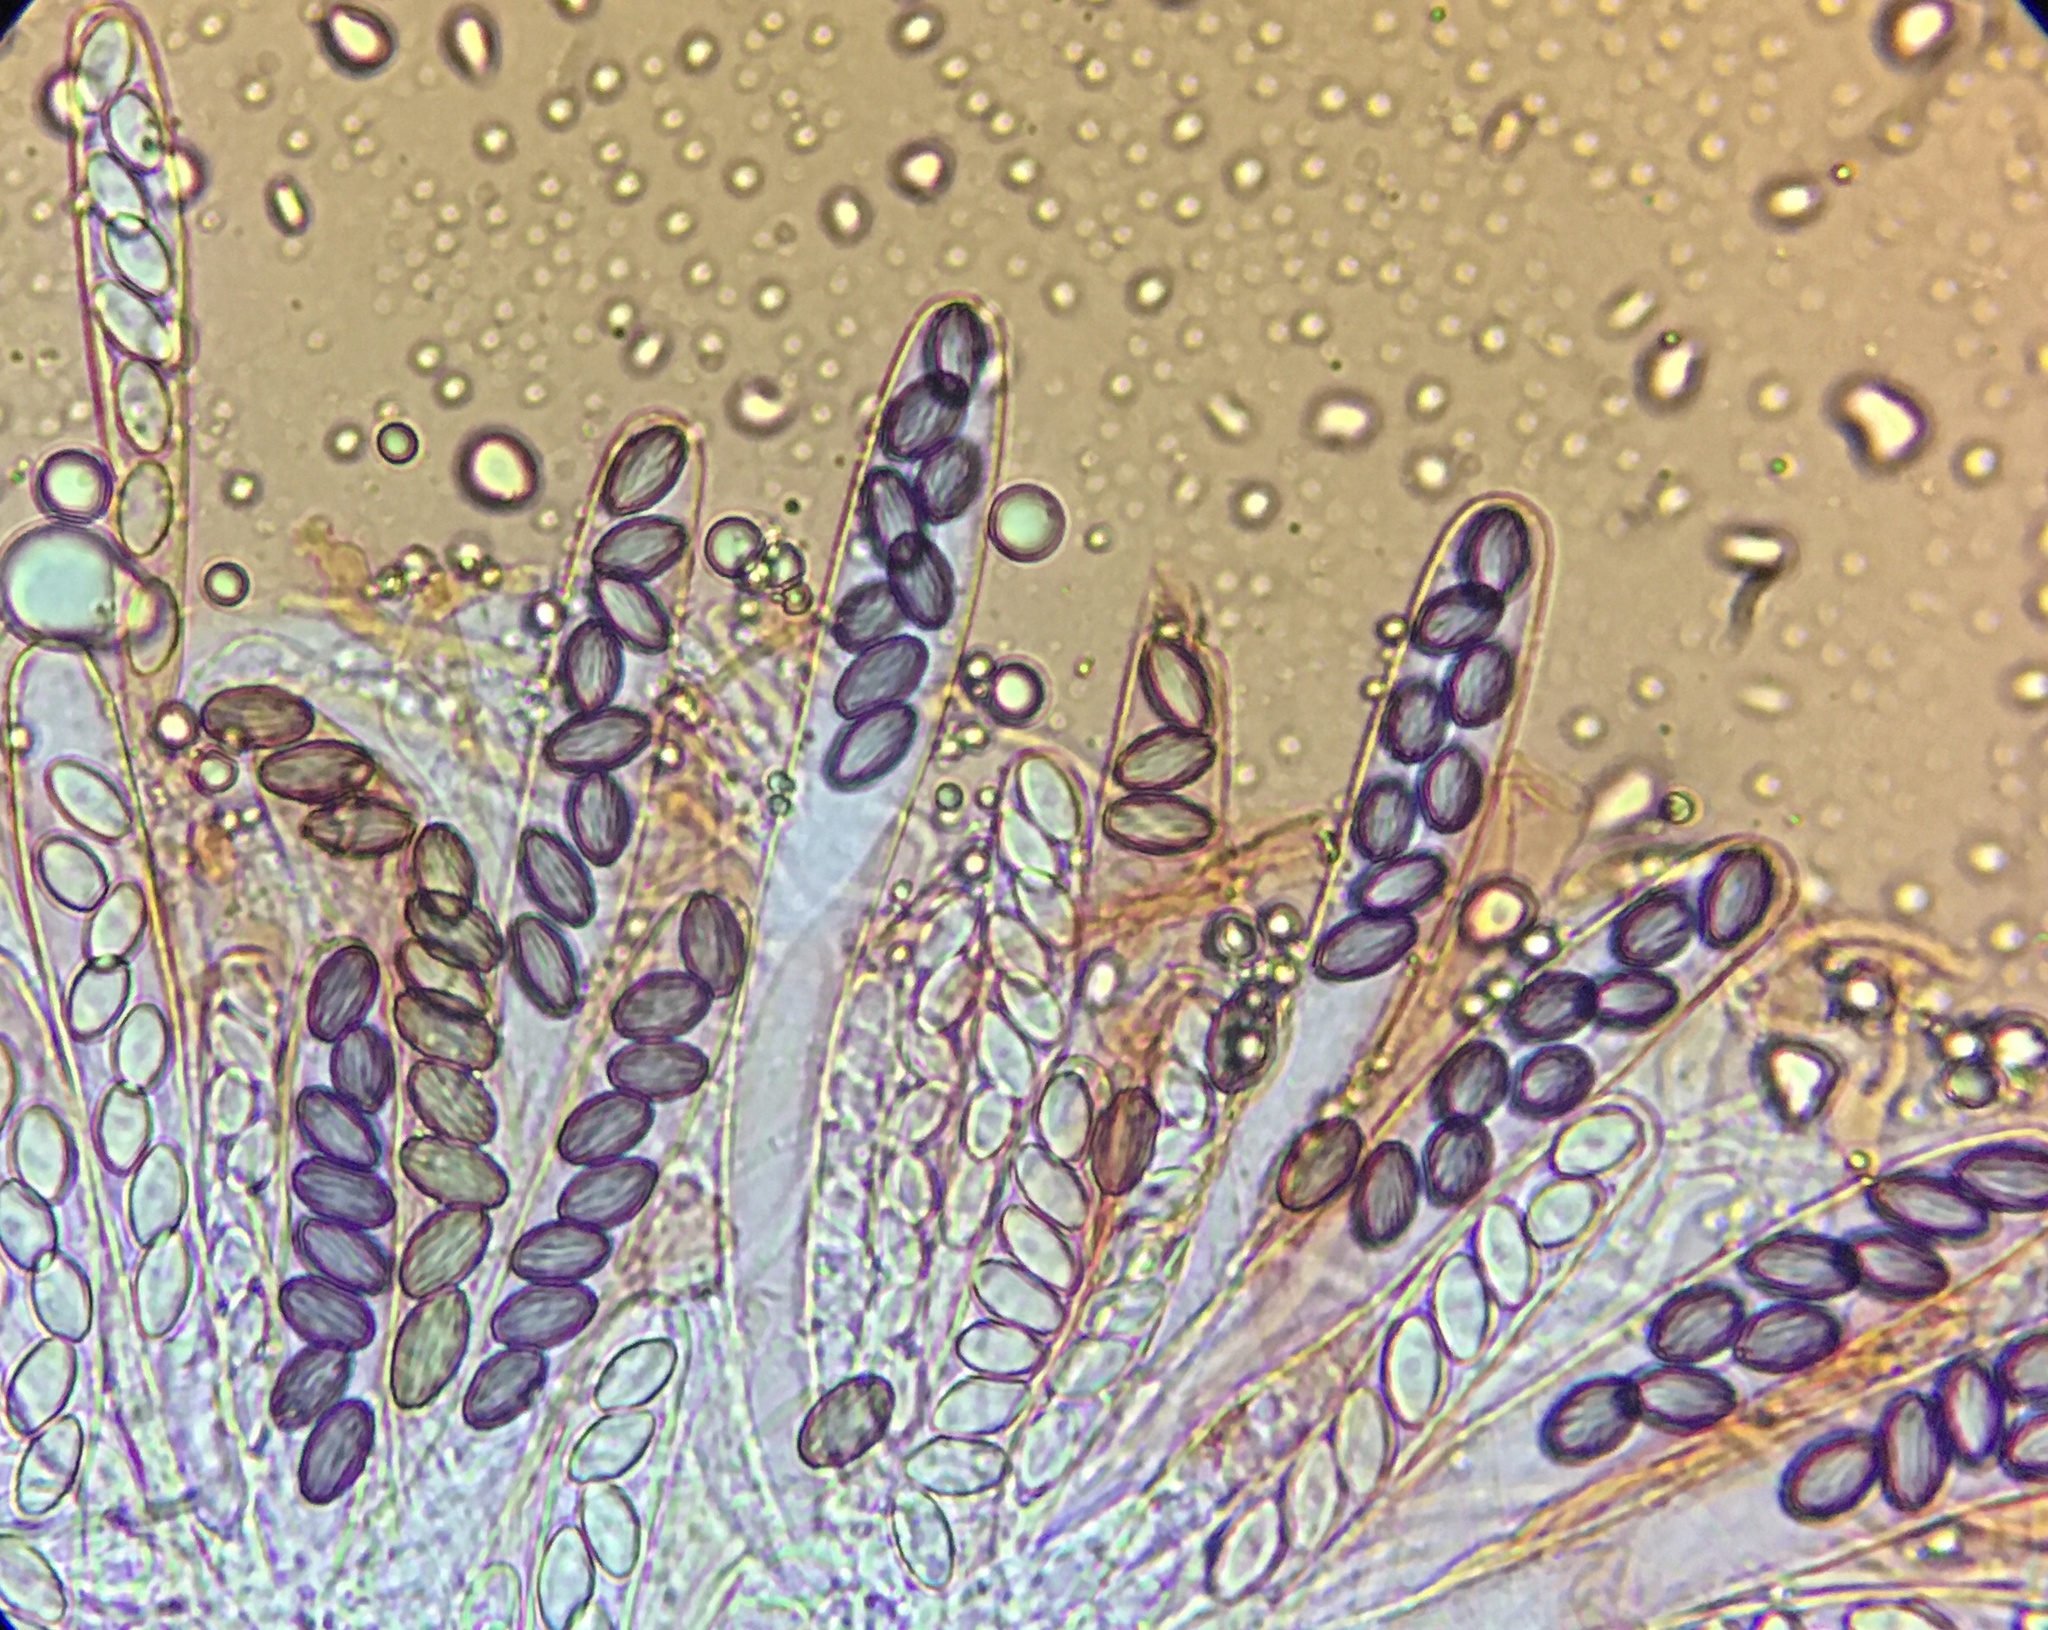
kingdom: Fungi
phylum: Ascomycota
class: Pezizomycetes
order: Pezizales
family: Ascobolaceae
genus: Ascobolus
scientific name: Ascobolus crenulatus
